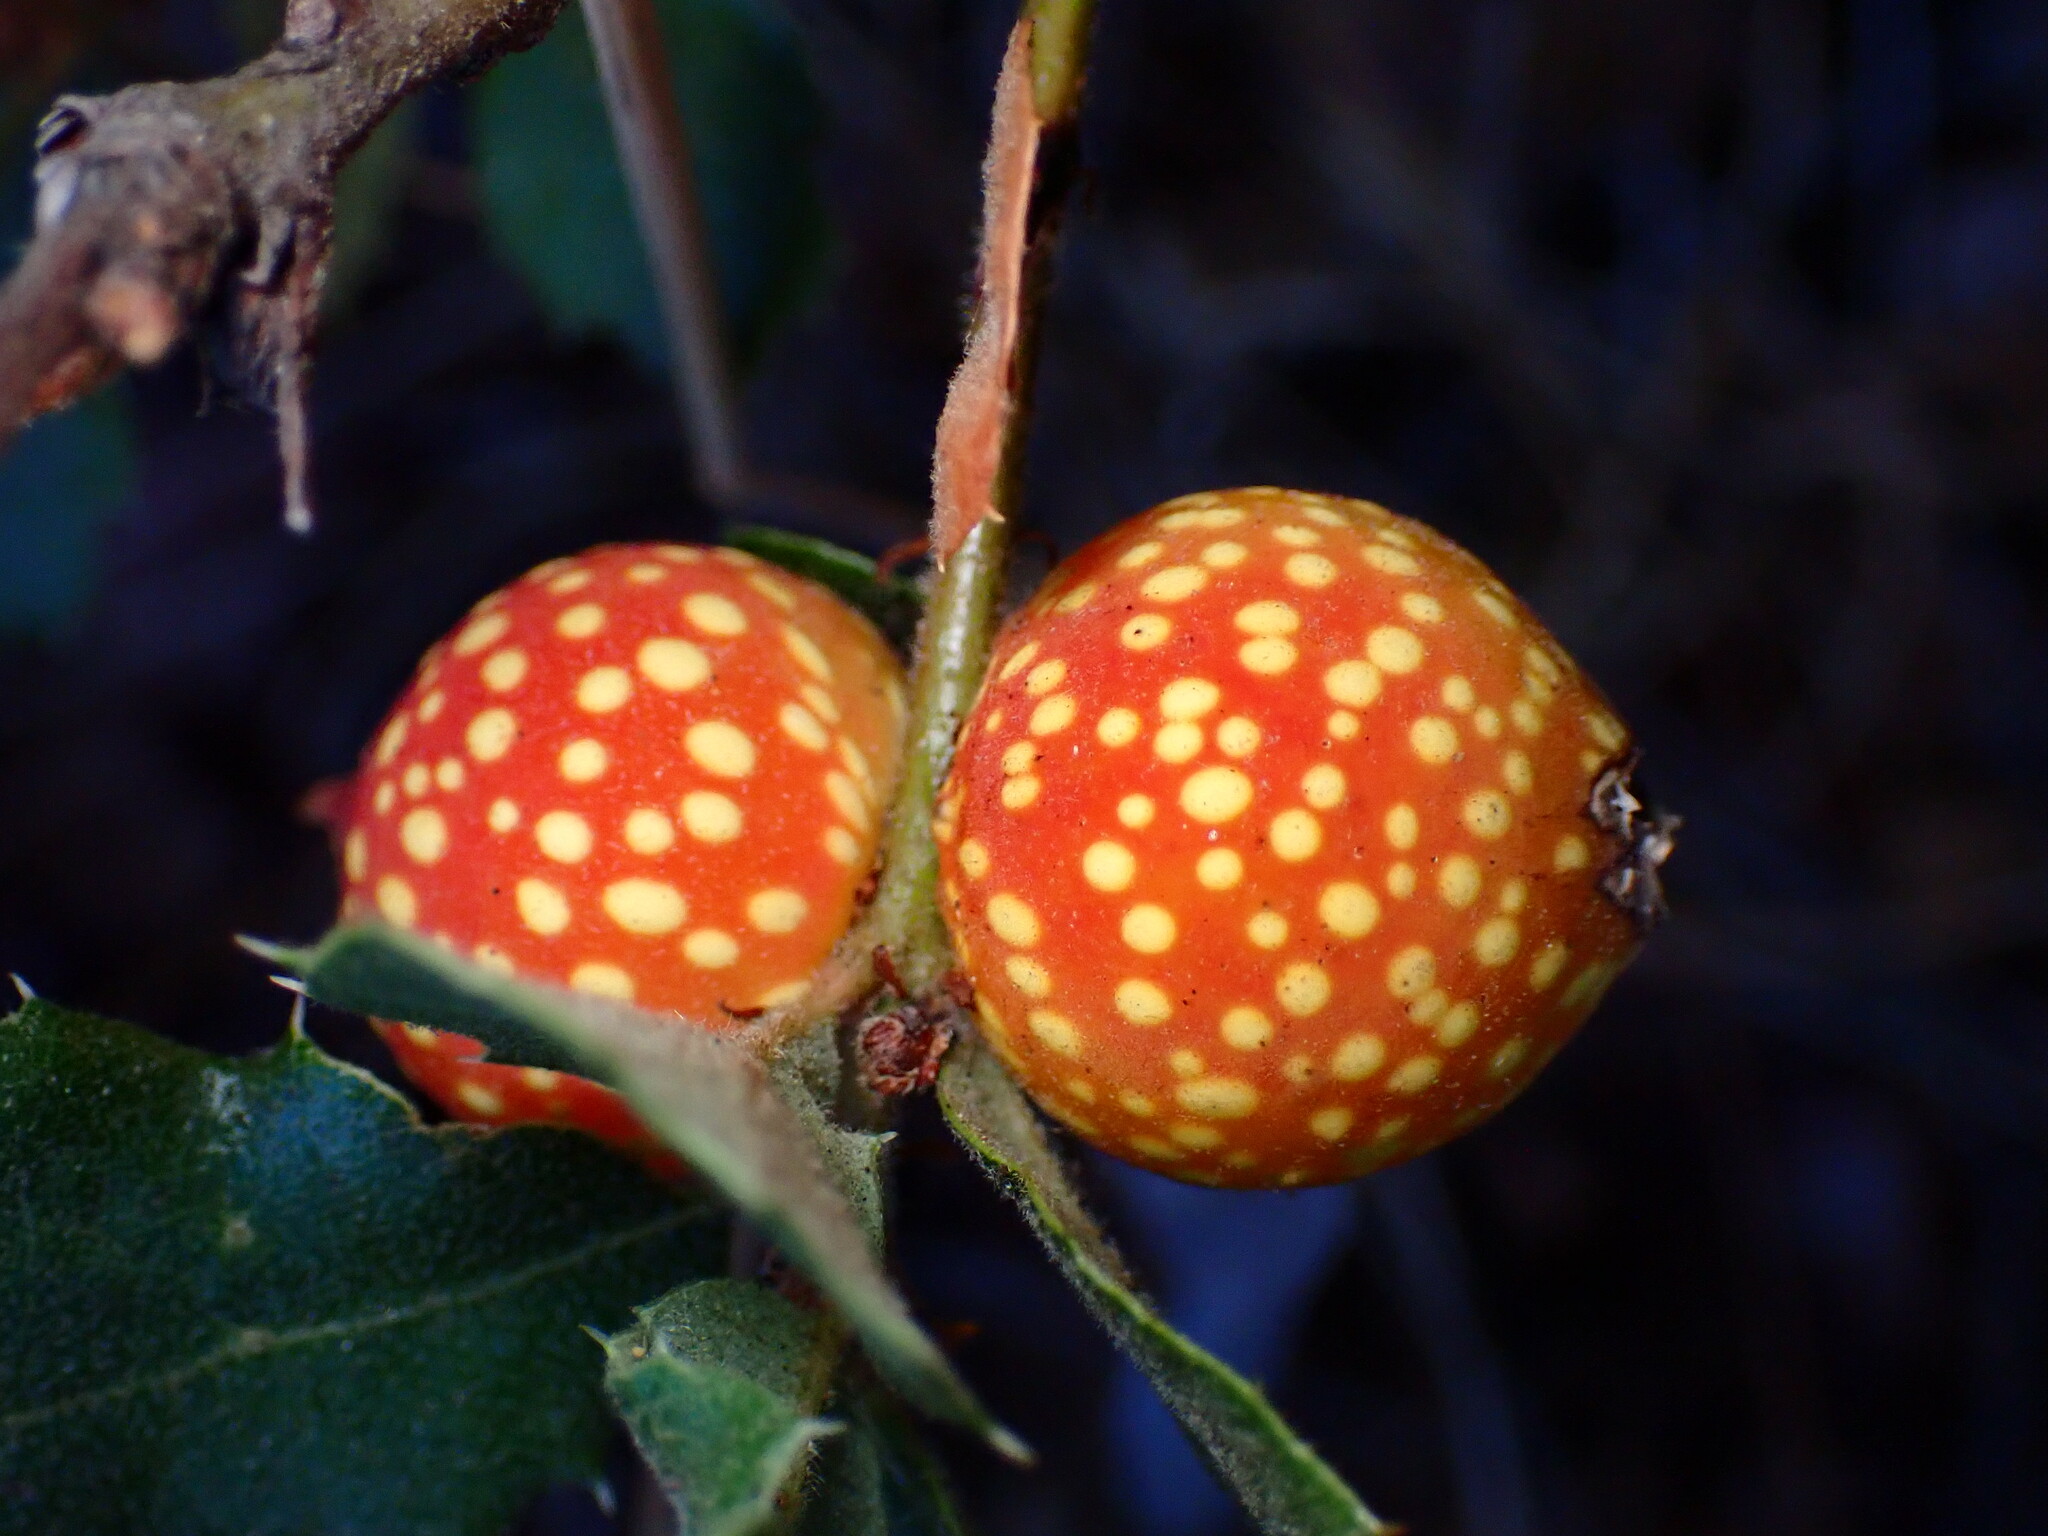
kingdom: Animalia
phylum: Arthropoda
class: Insecta
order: Hymenoptera
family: Cynipidae
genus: Burnettweldia
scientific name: Burnettweldia
